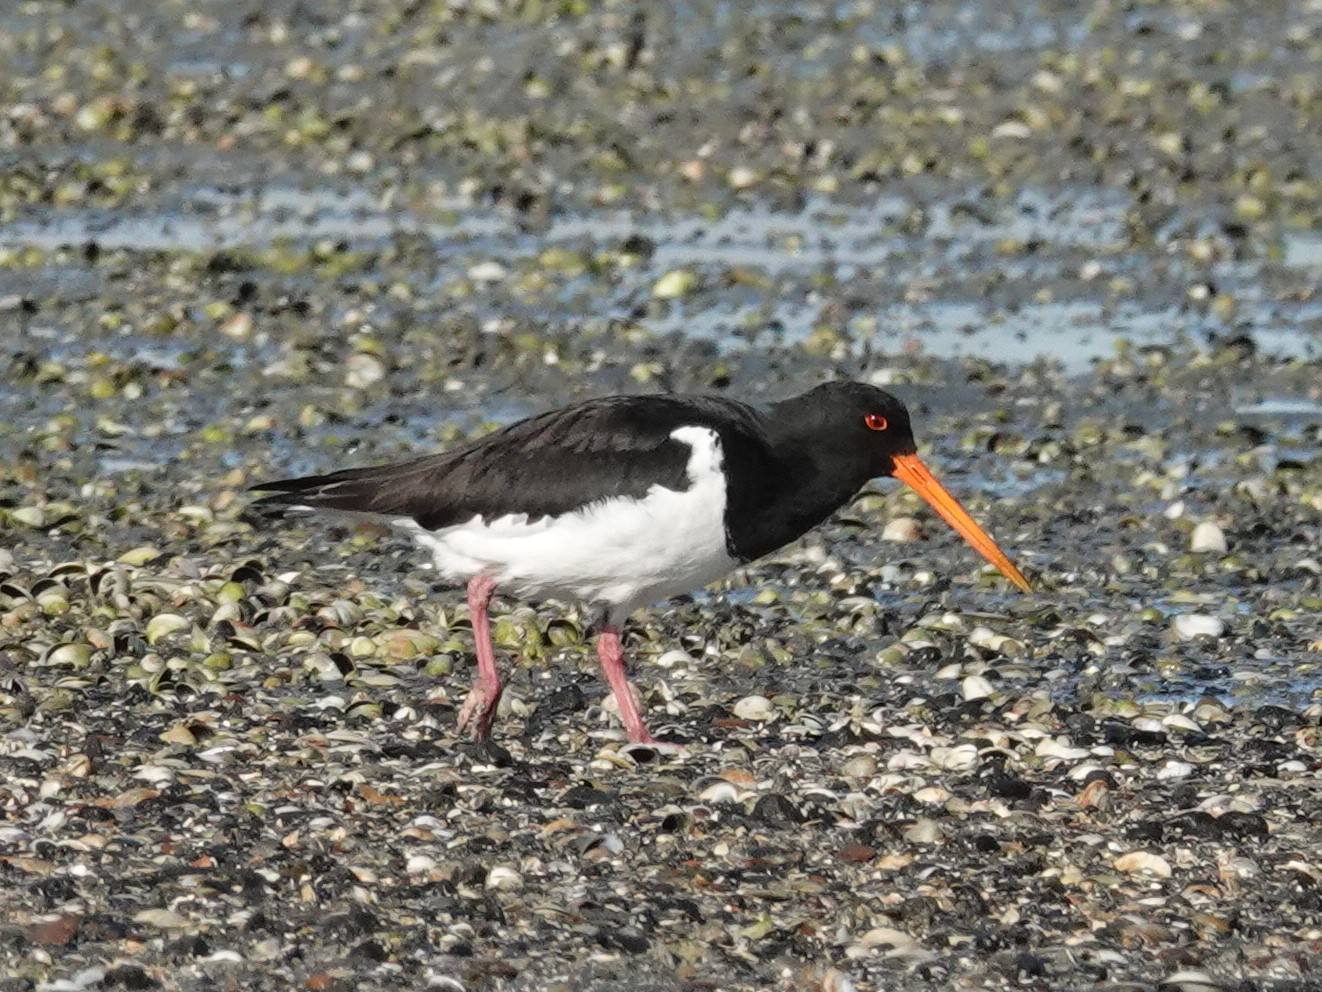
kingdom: Animalia
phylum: Chordata
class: Aves
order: Charadriiformes
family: Haematopodidae
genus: Haematopus
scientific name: Haematopus finschi
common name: South island oystercatcher
